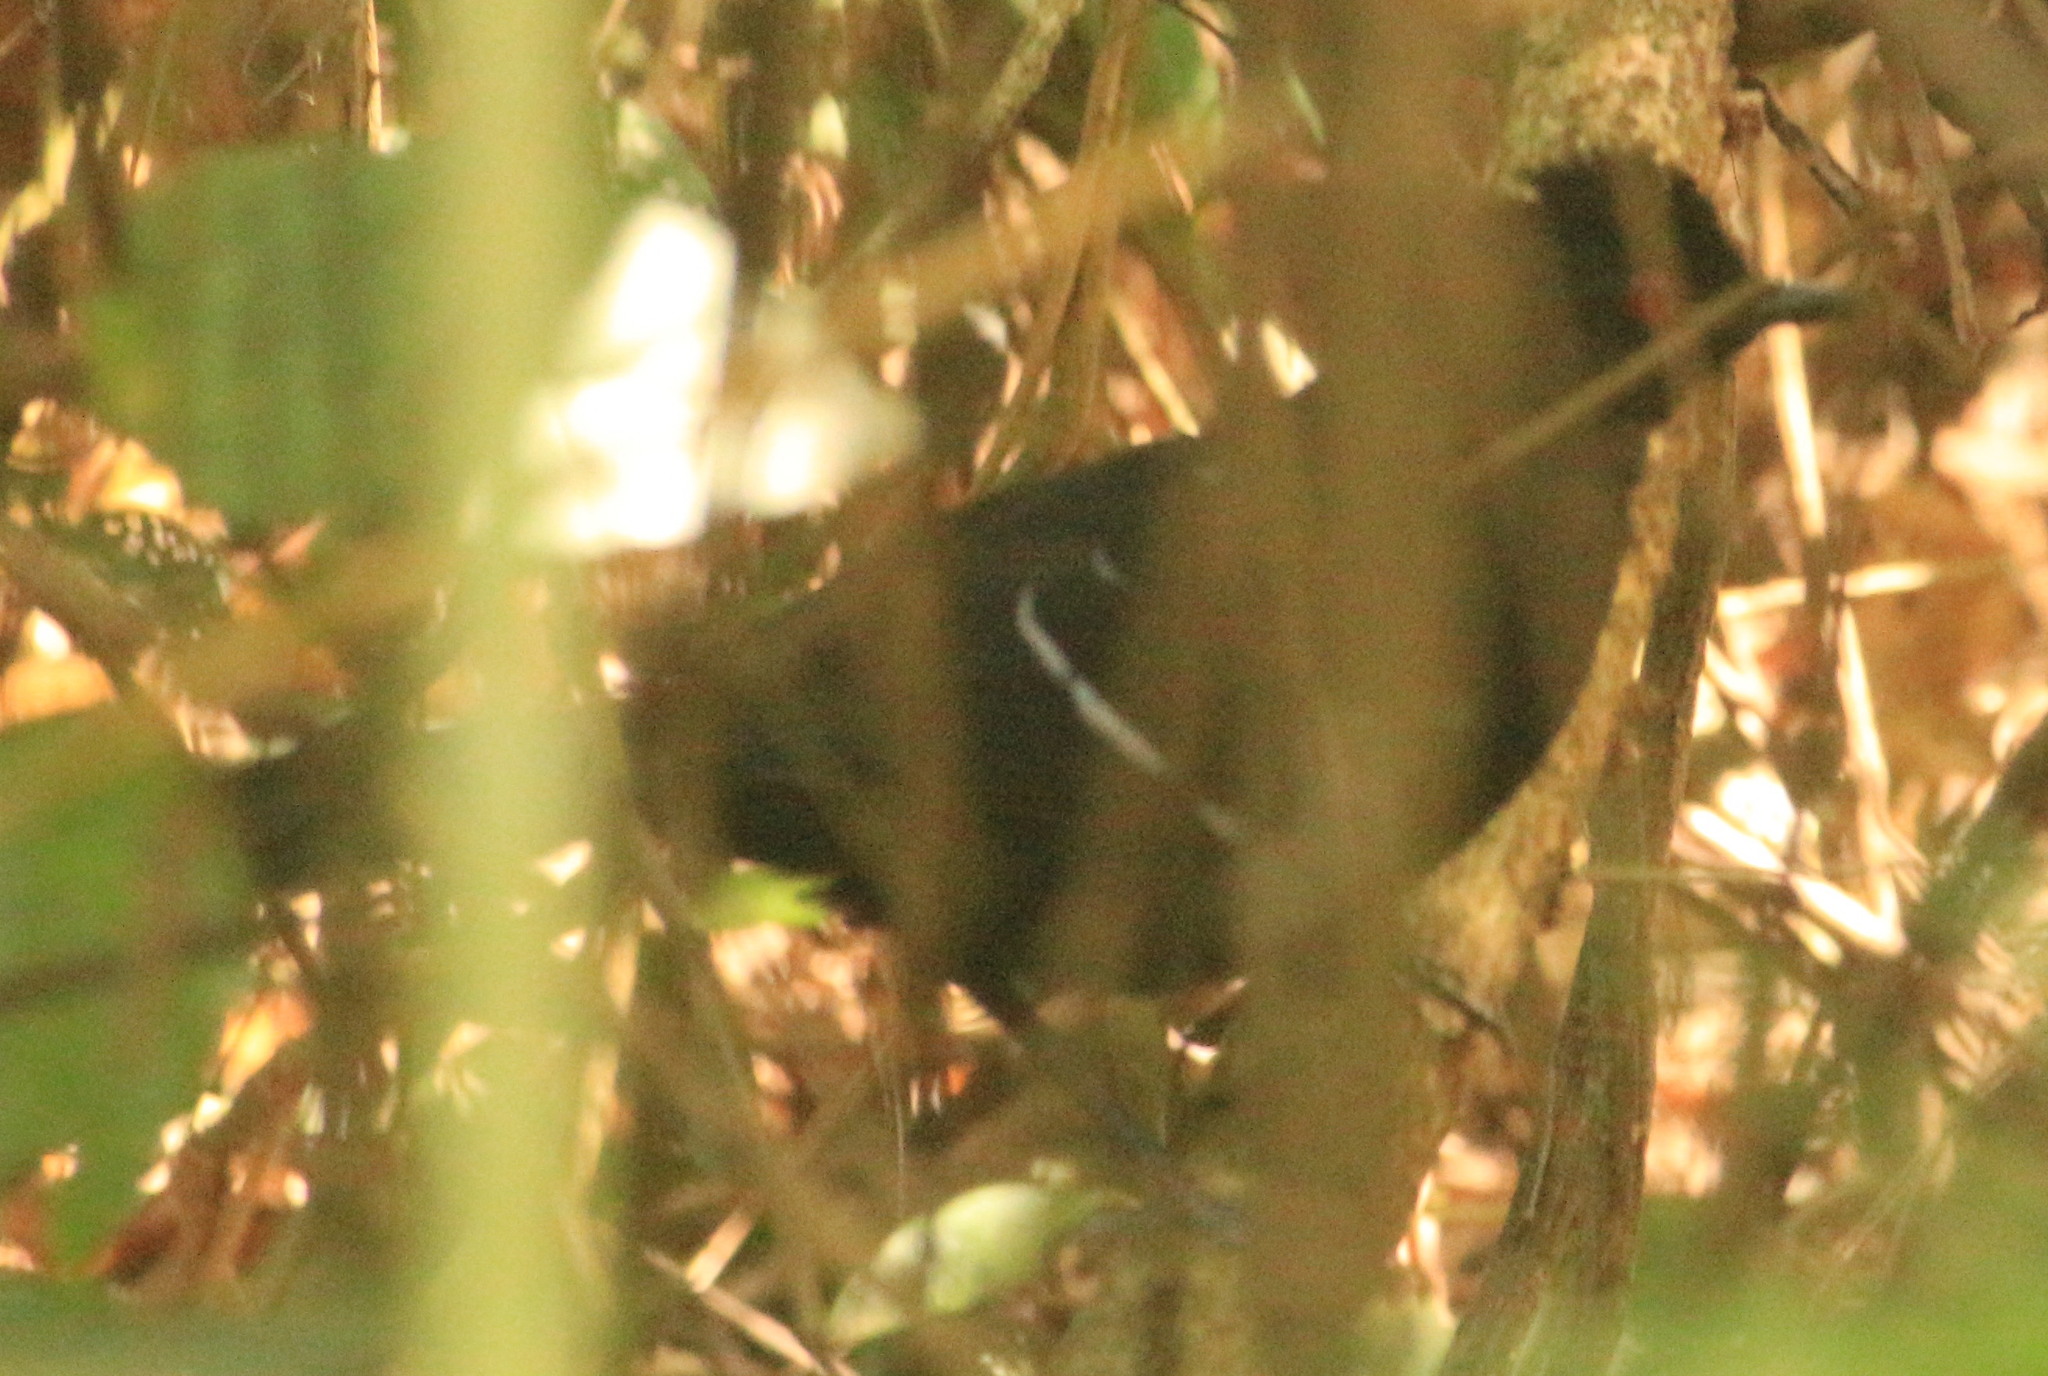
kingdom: Animalia
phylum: Chordata
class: Aves
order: Passeriformes
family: Thamnophilidae
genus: Pyriglena
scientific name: Pyriglena leucoptera
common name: White-shouldered fire-eye
